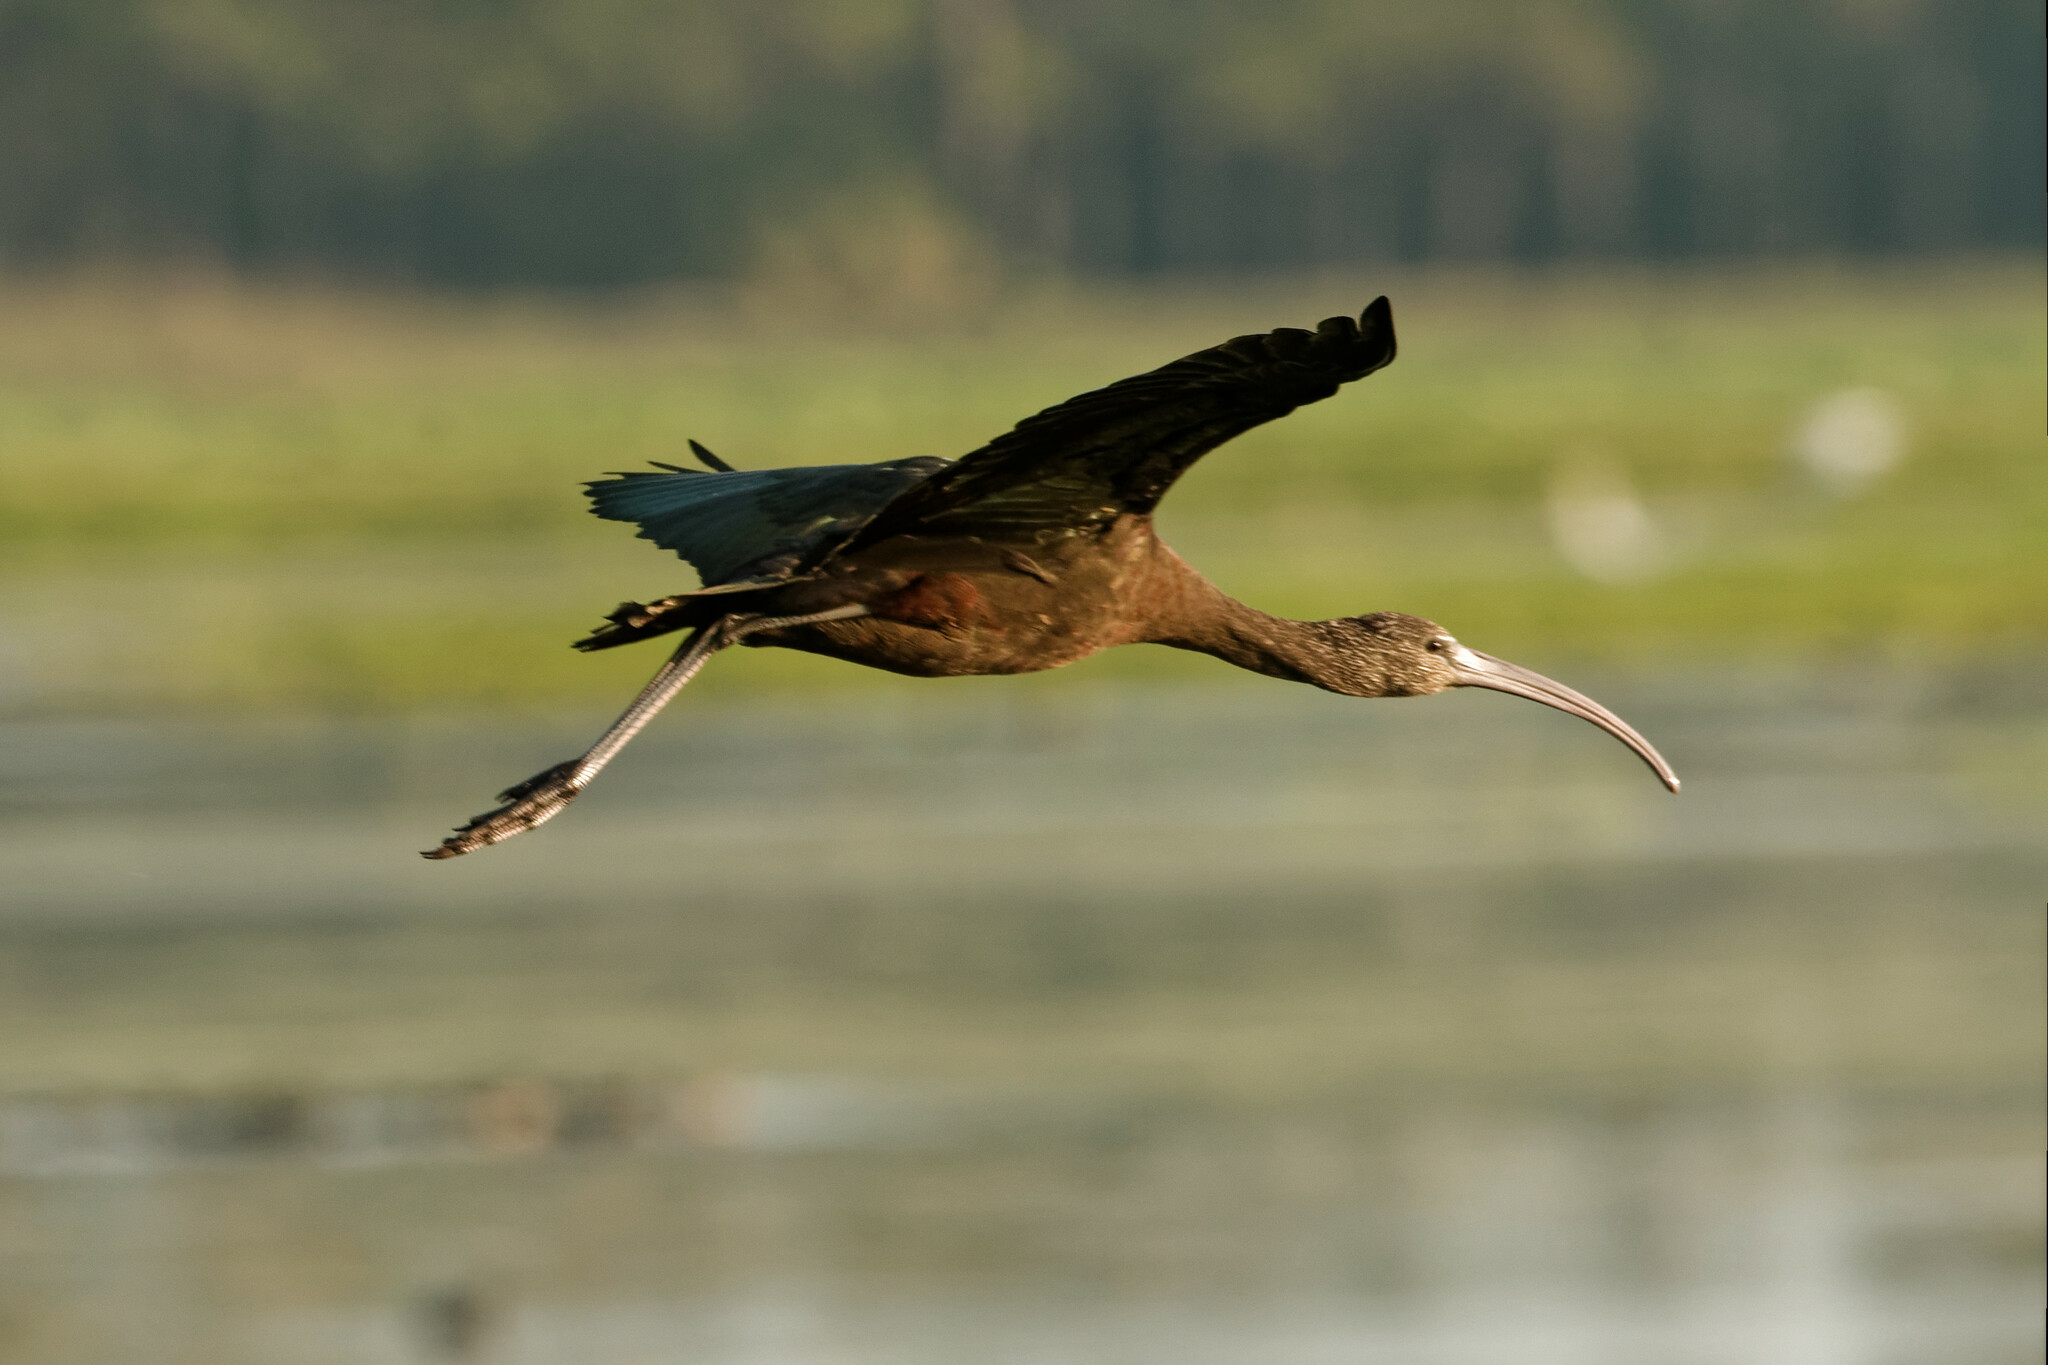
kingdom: Animalia
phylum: Chordata
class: Aves
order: Pelecaniformes
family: Threskiornithidae
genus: Plegadis
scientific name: Plegadis falcinellus
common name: Glossy ibis
